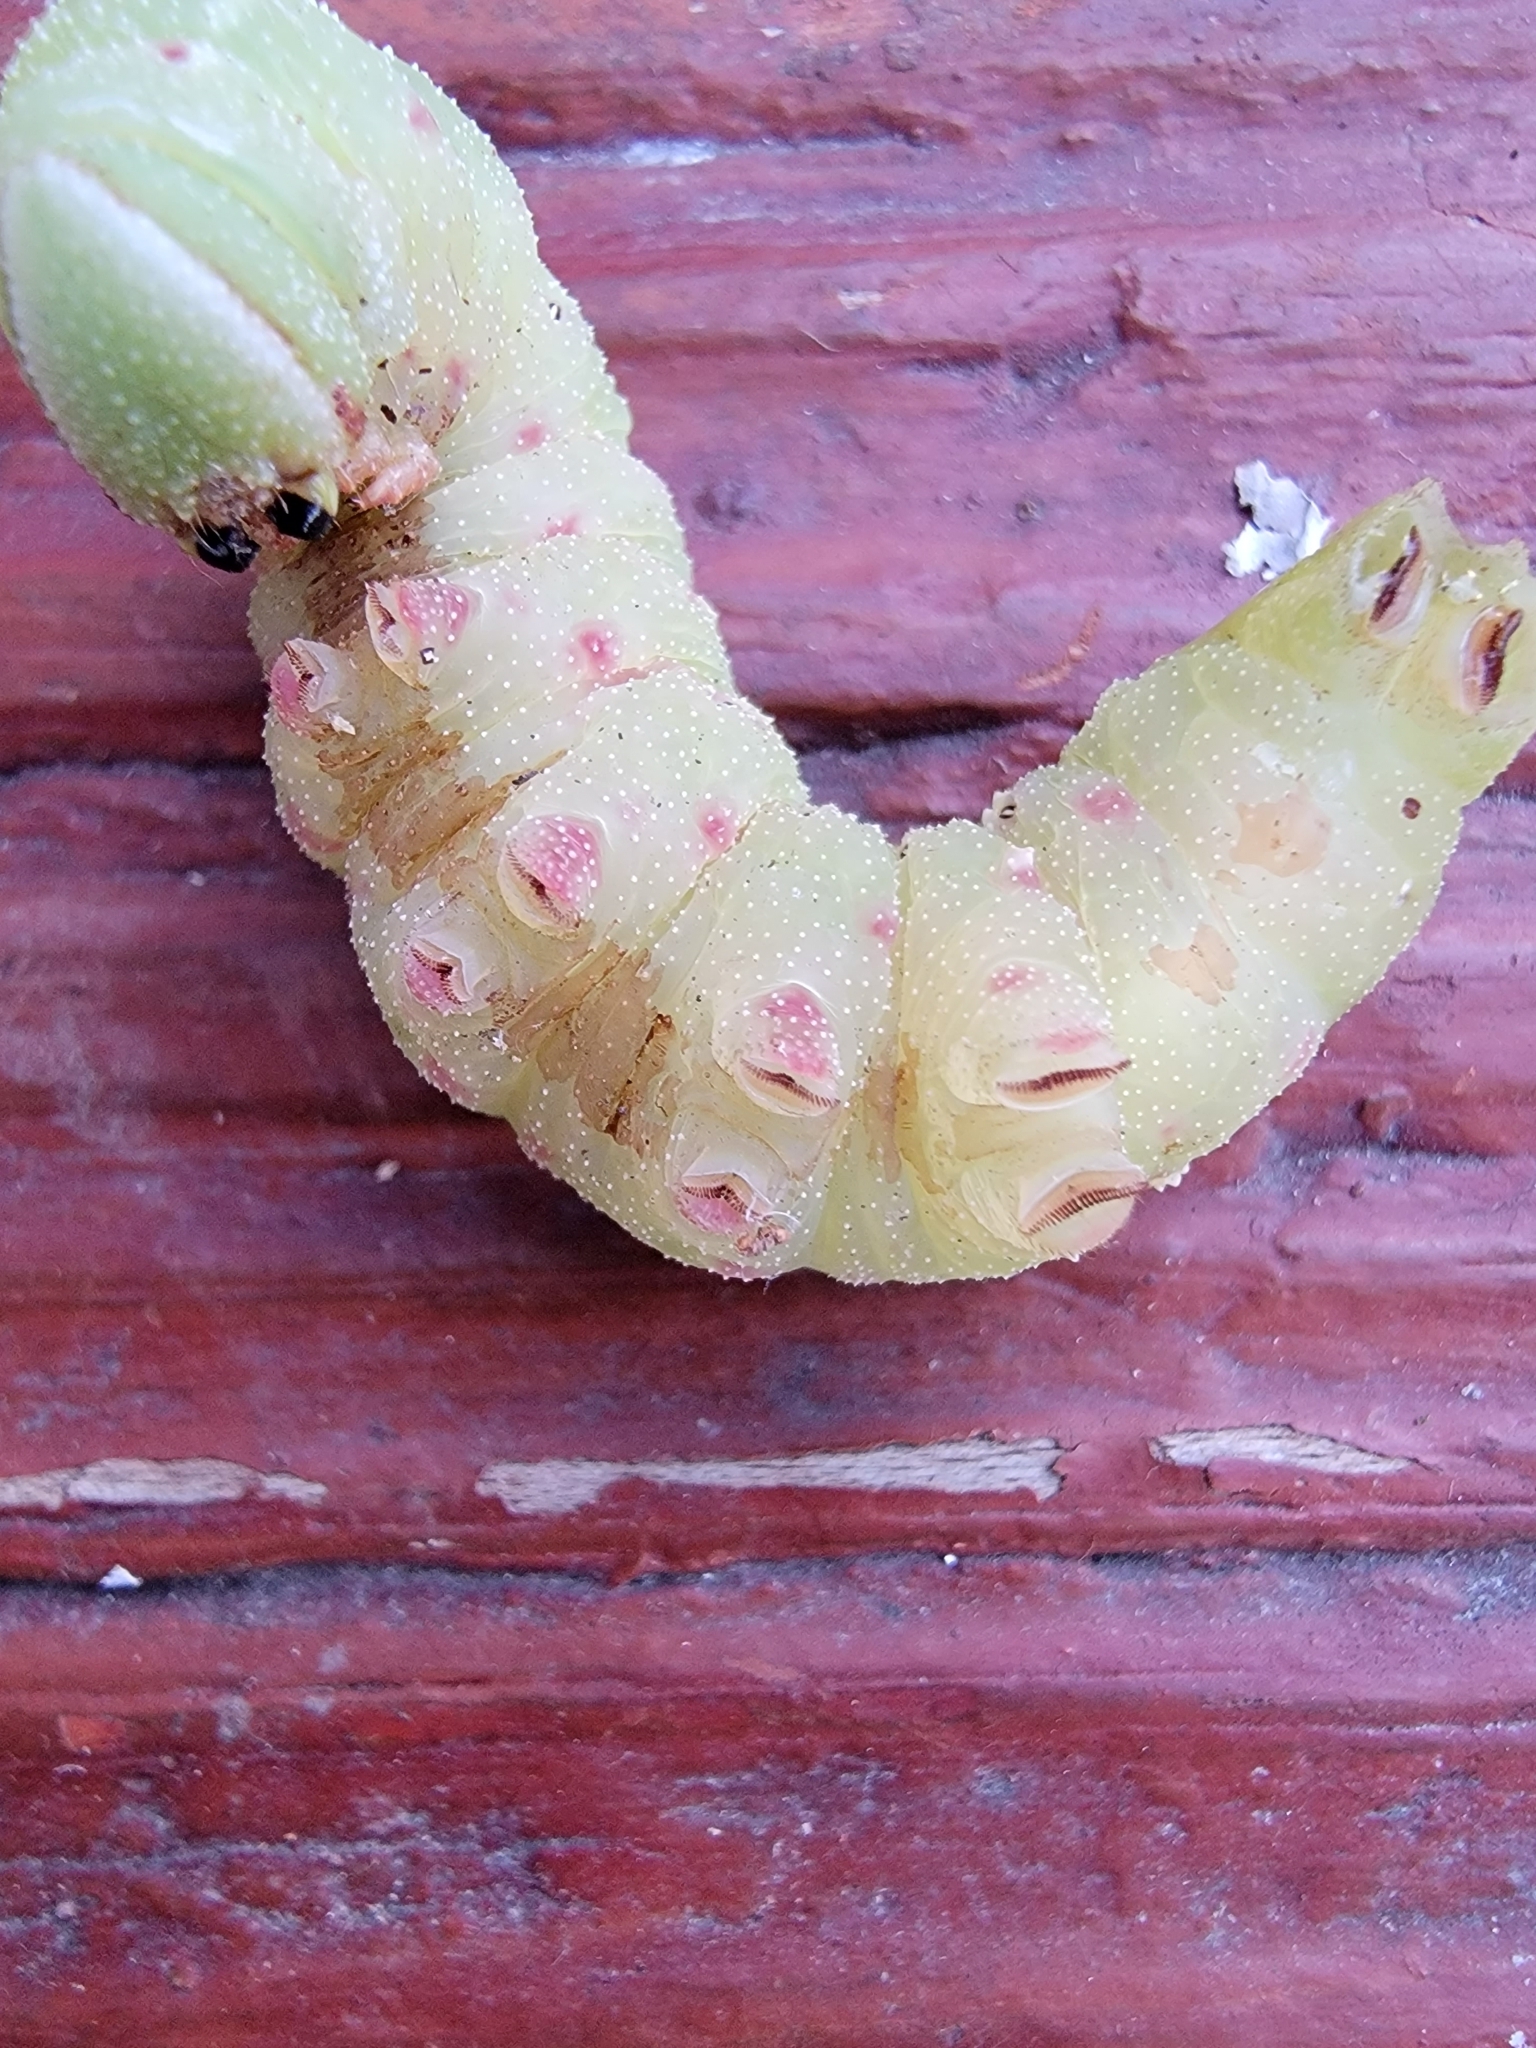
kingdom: Animalia
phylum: Arthropoda
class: Insecta
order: Lepidoptera
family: Sphingidae
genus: Paonias
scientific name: Paonias excaecata
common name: Blind-eyed sphinx
